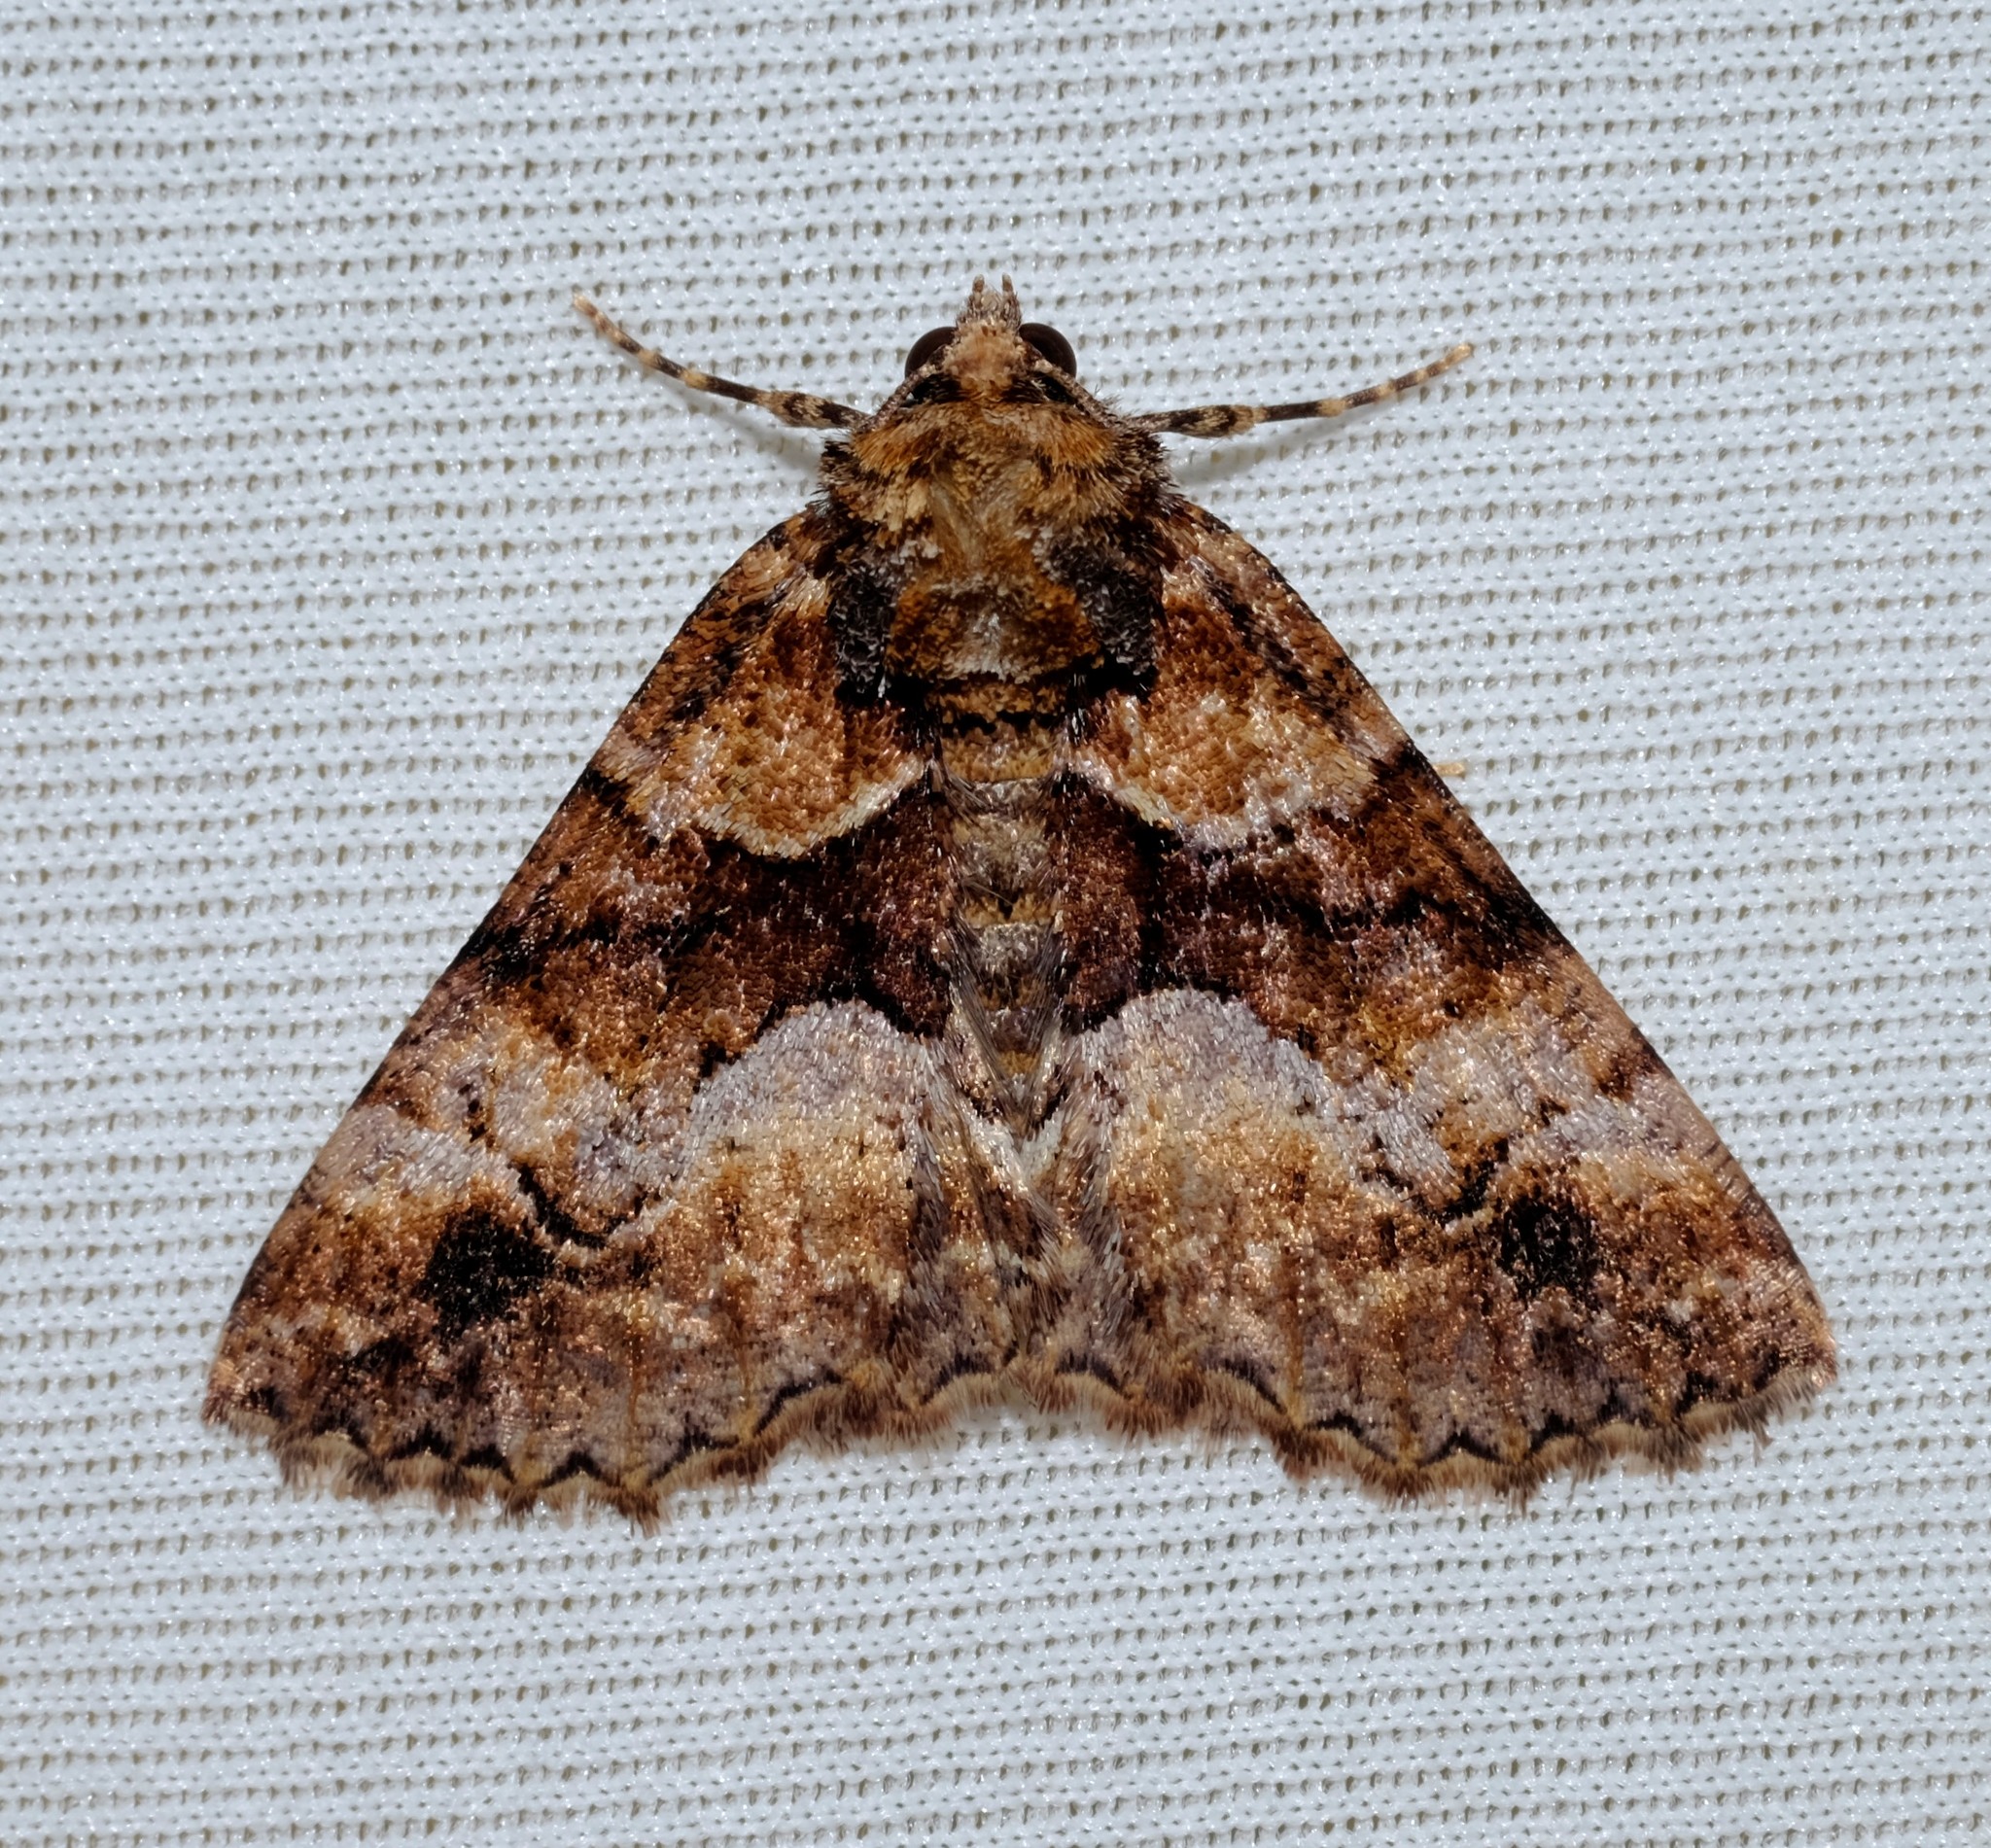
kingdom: Animalia
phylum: Arthropoda
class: Insecta
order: Lepidoptera
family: Geometridae
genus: Gastrina
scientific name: Gastrina cristaria
